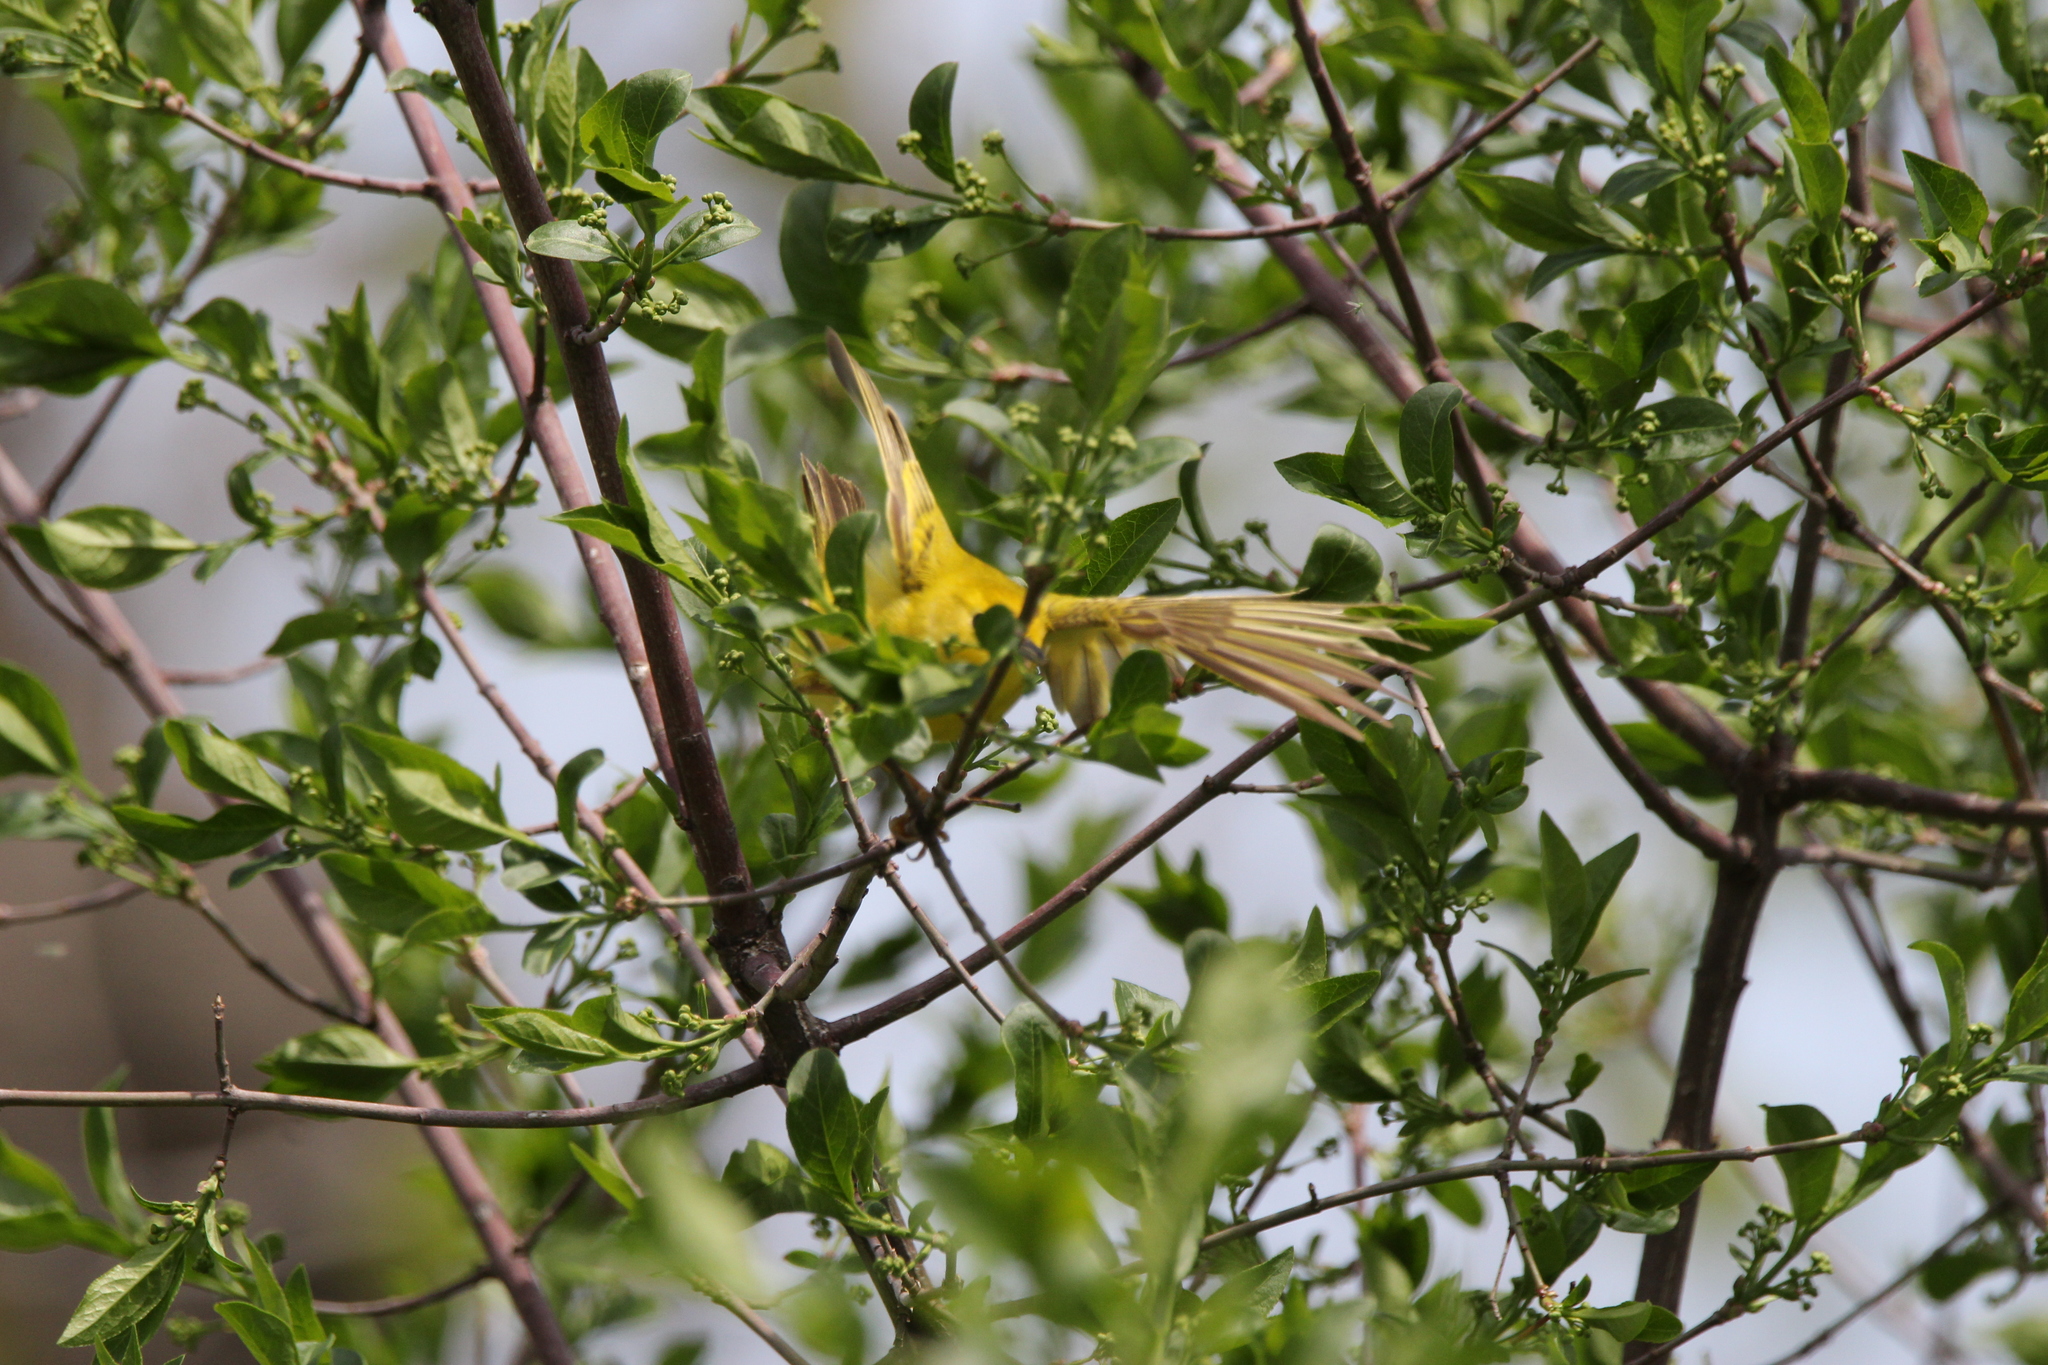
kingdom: Animalia
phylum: Chordata
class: Aves
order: Passeriformes
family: Parulidae
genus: Setophaga
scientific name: Setophaga petechia
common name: Yellow warbler
